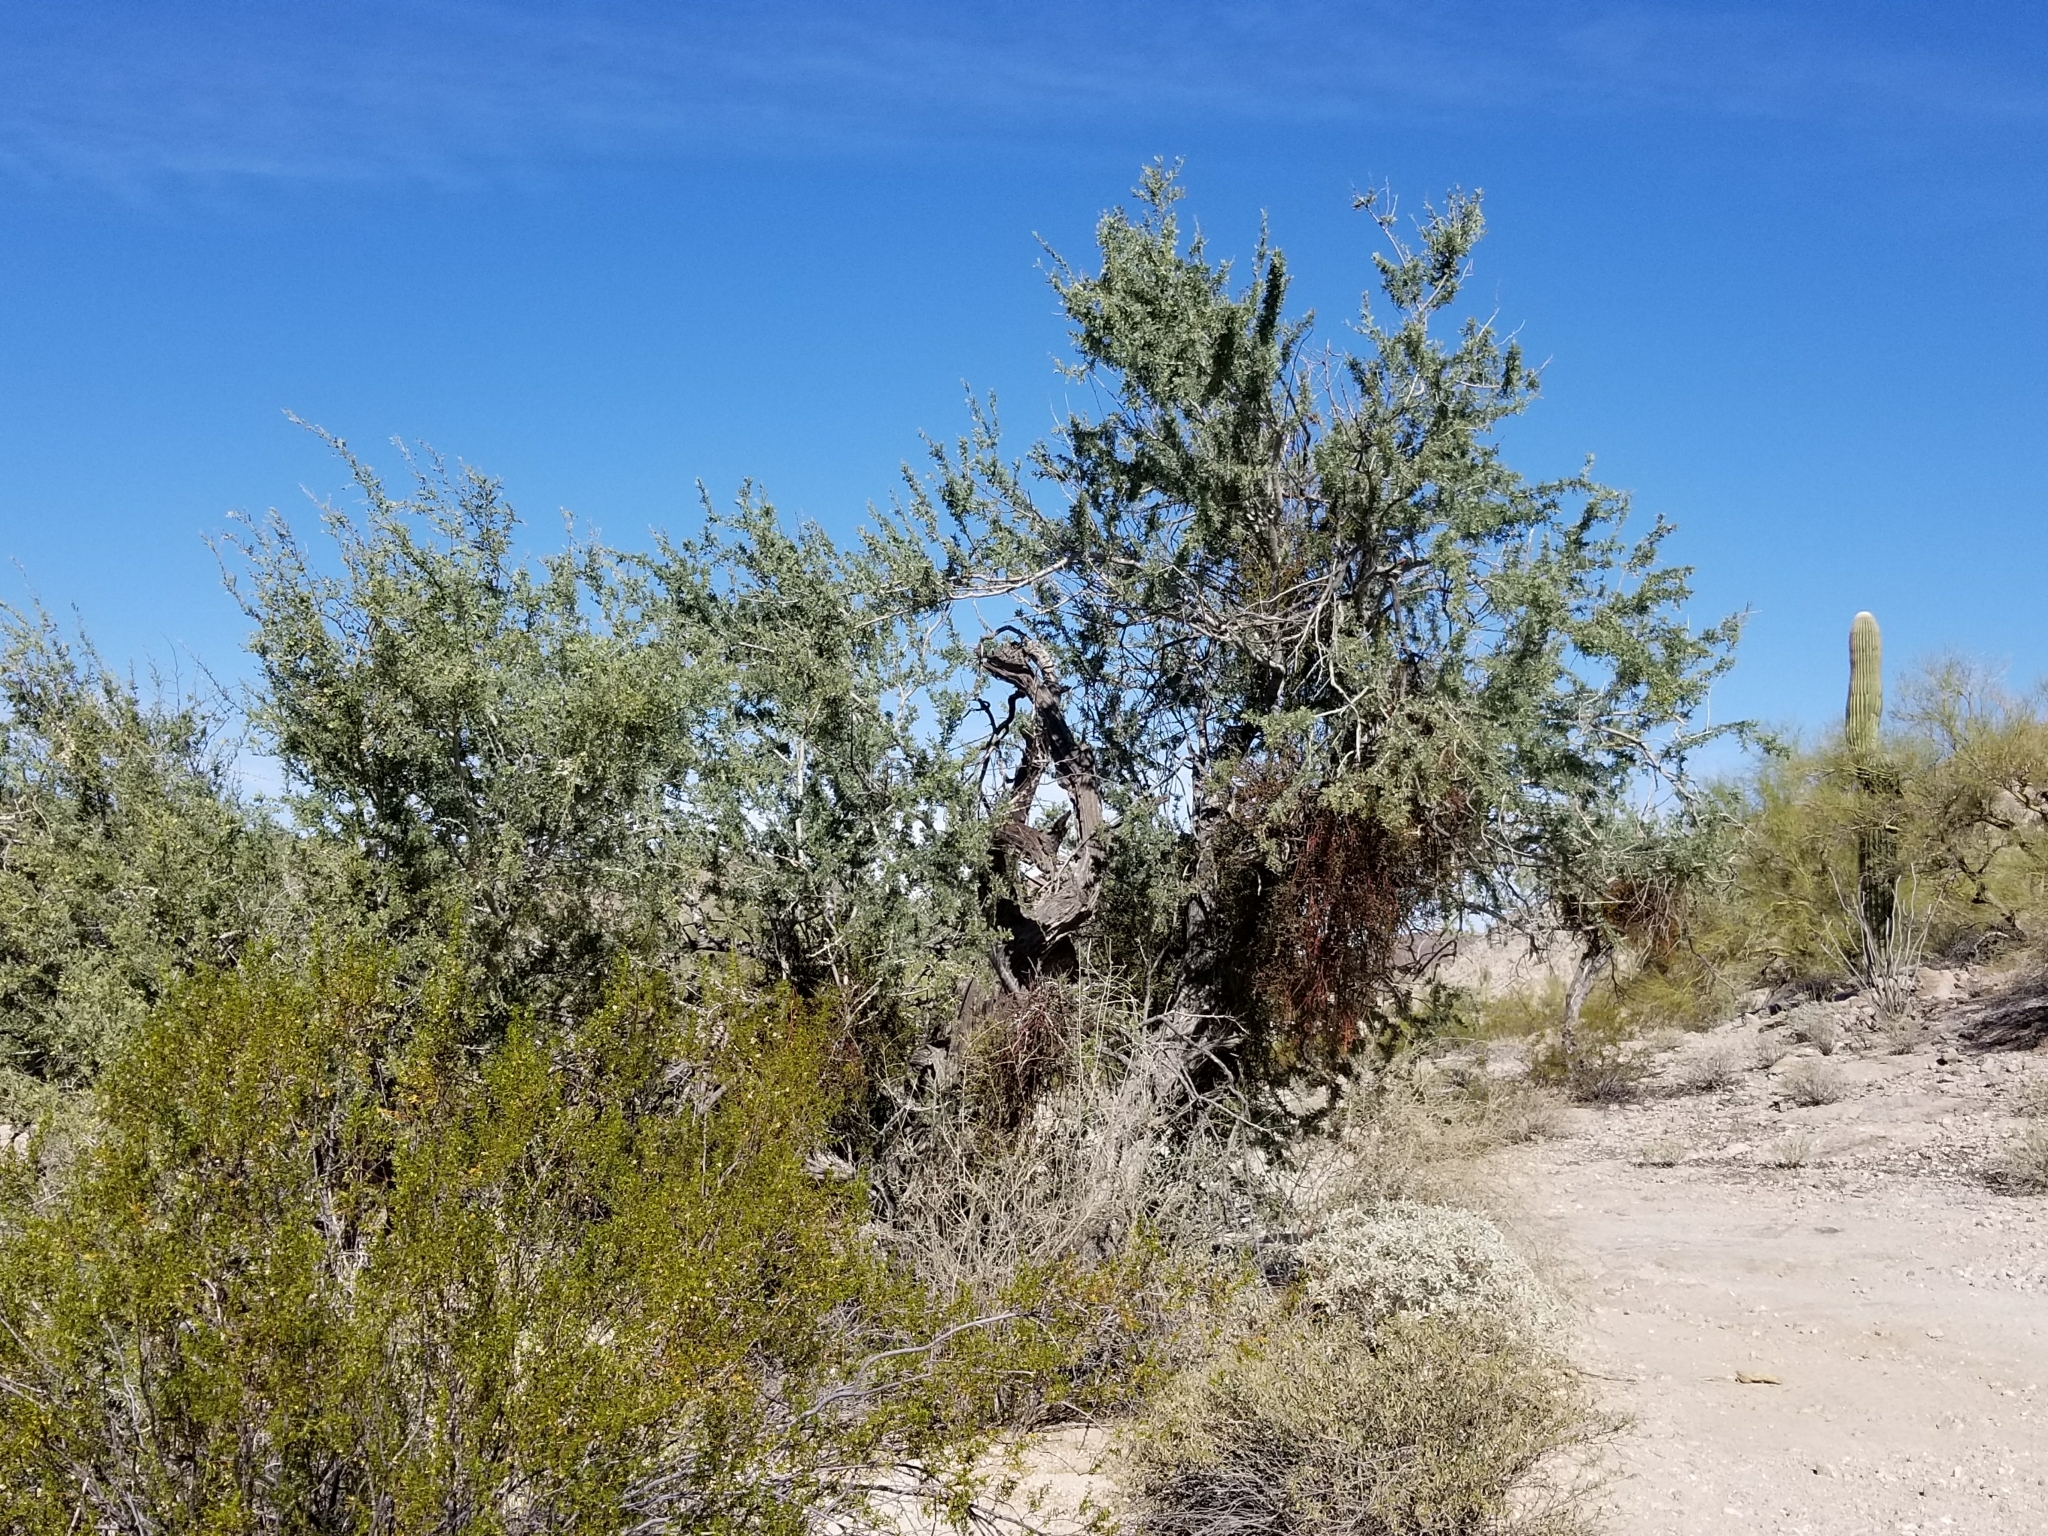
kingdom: Plantae
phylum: Tracheophyta
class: Magnoliopsida
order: Fabales
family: Fabaceae
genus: Olneya
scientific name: Olneya tesota
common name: Desert ironwood
